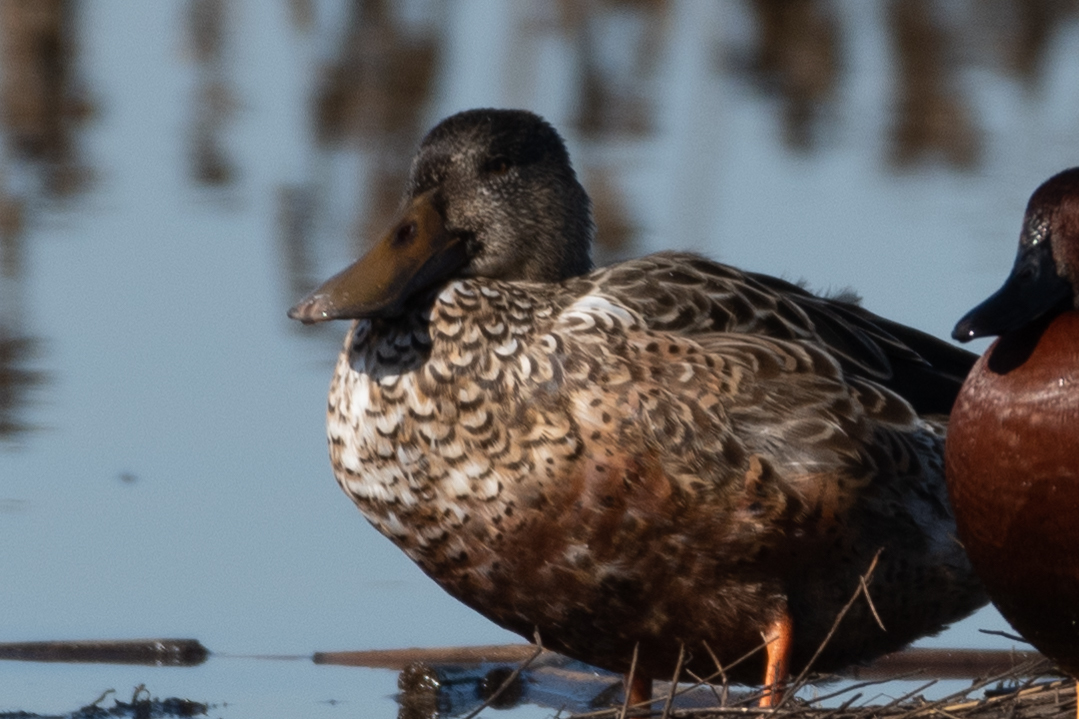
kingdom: Animalia
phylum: Chordata
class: Aves
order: Anseriformes
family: Anatidae
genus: Spatula
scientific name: Spatula clypeata
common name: Northern shoveler
